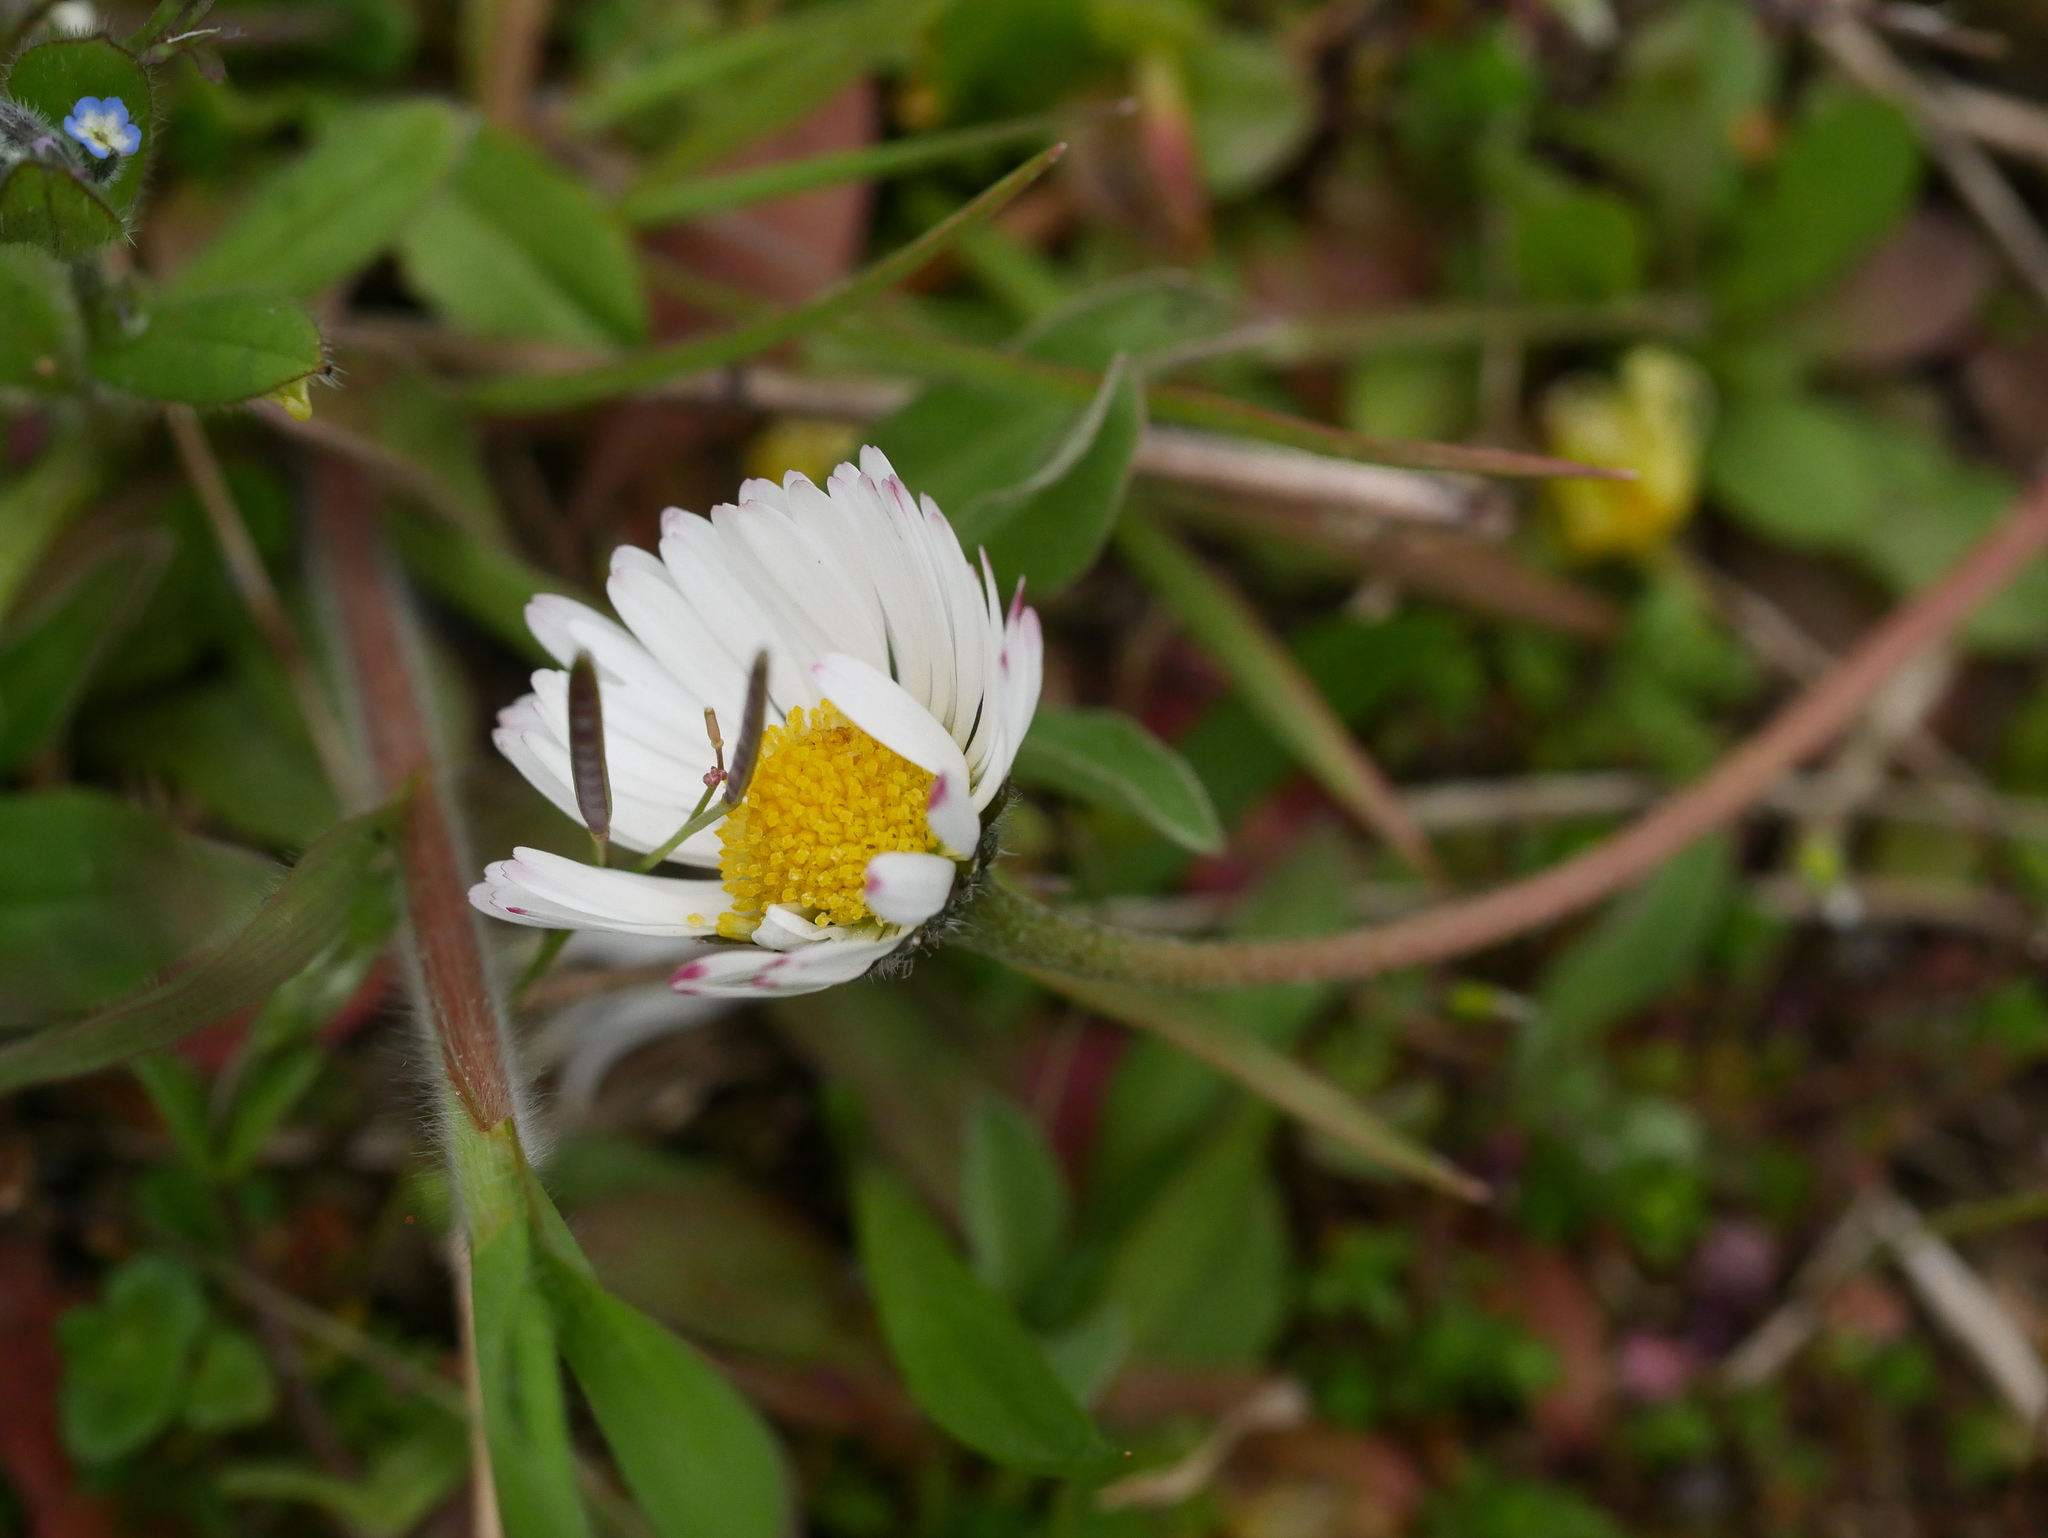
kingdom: Plantae
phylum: Tracheophyta
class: Magnoliopsida
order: Asterales
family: Asteraceae
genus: Bellis
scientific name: Bellis perennis
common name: Lawndaisy
